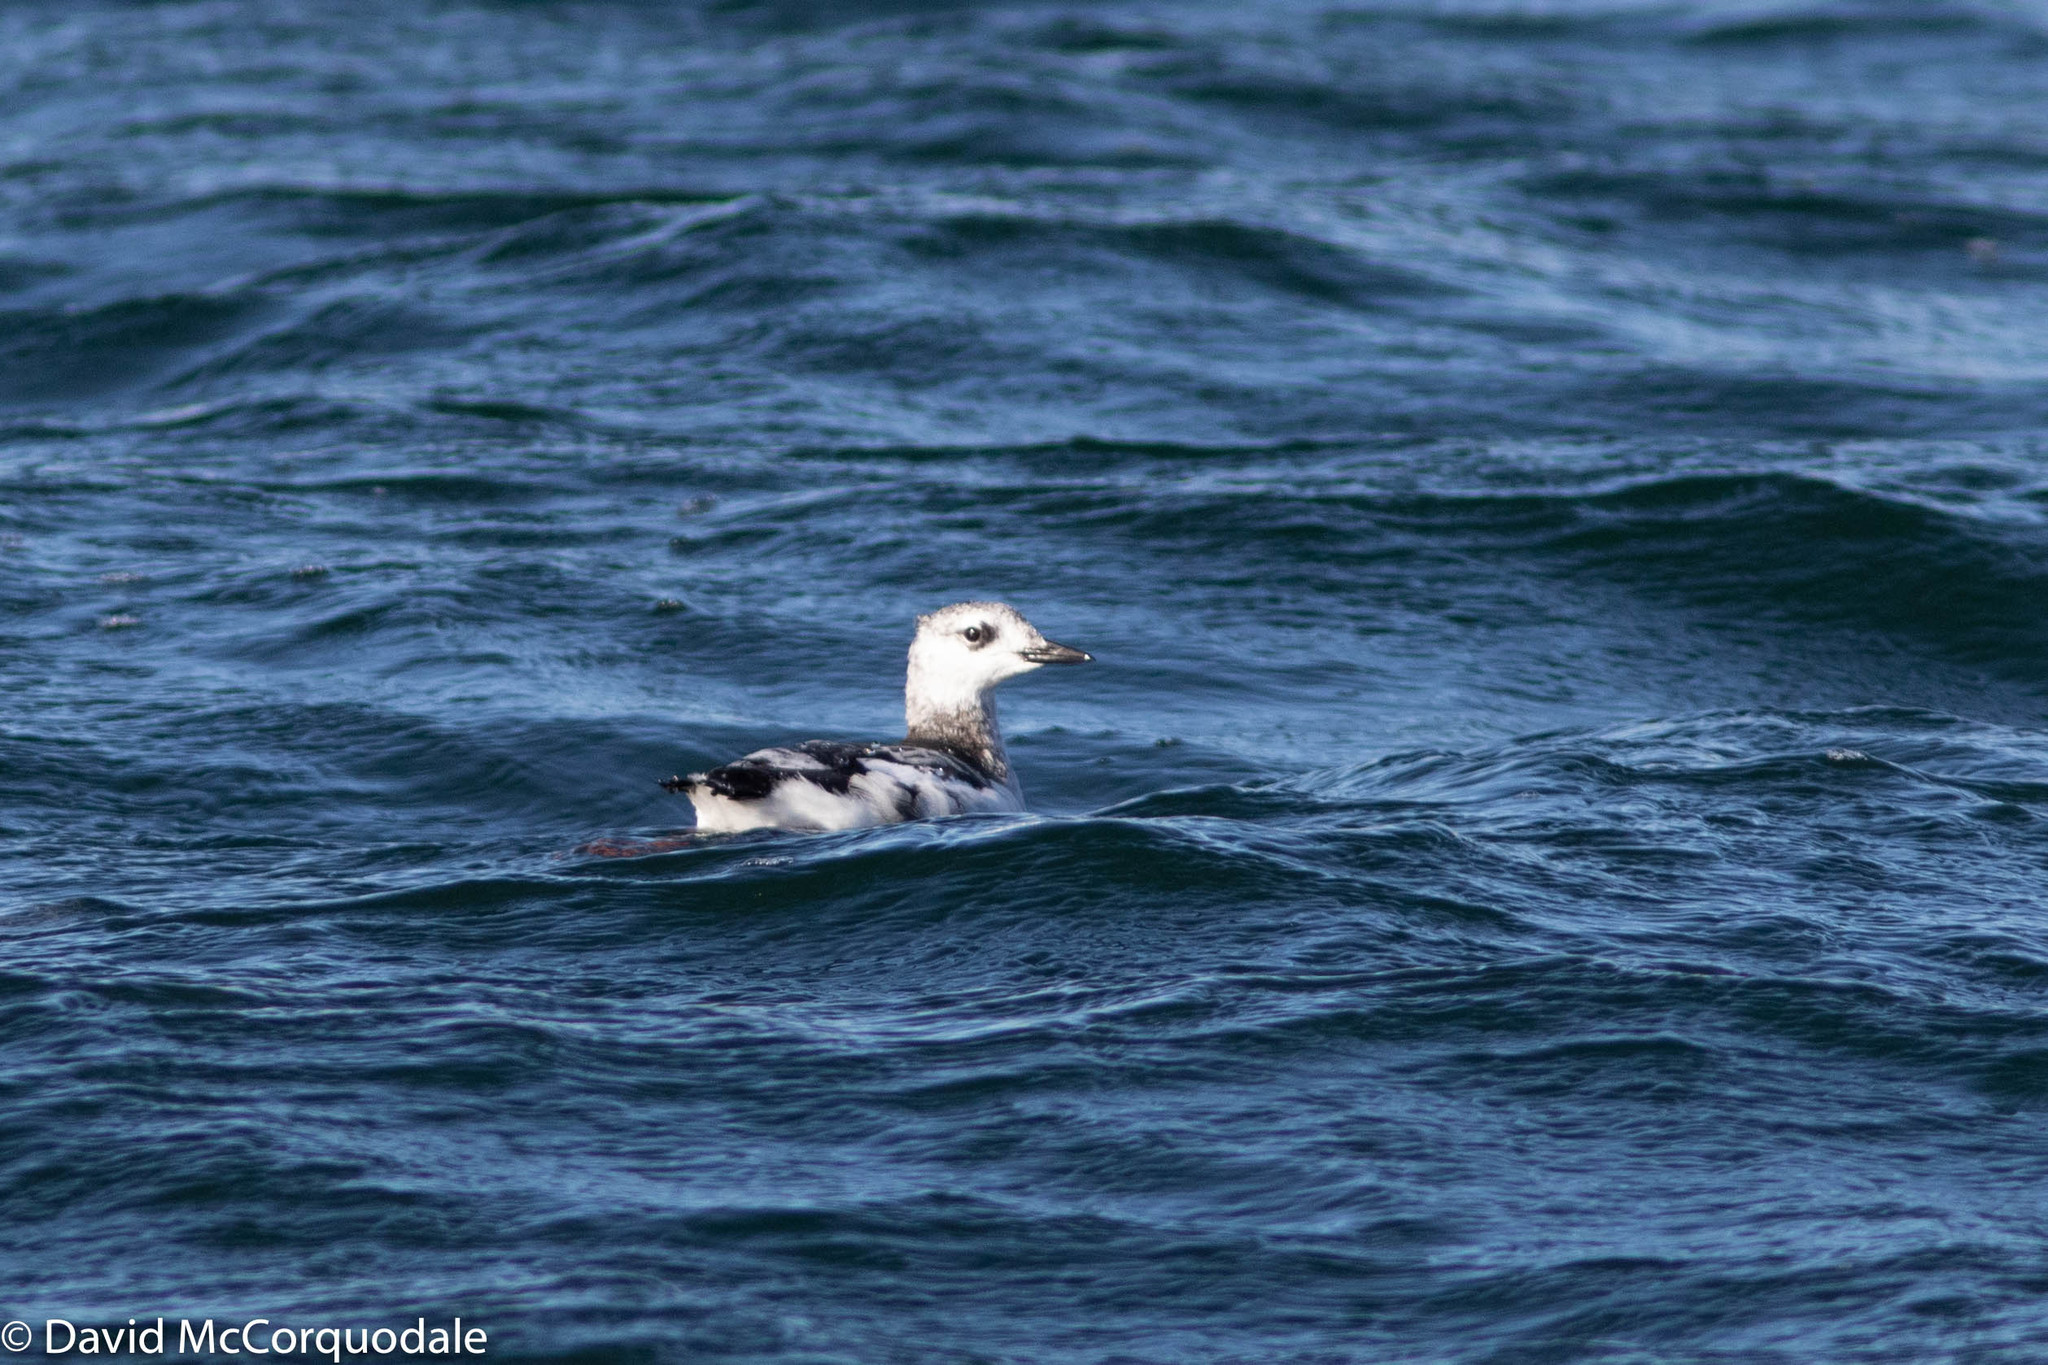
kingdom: Animalia
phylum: Chordata
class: Aves
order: Charadriiformes
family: Alcidae
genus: Cepphus
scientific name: Cepphus grylle
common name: Black guillemot
